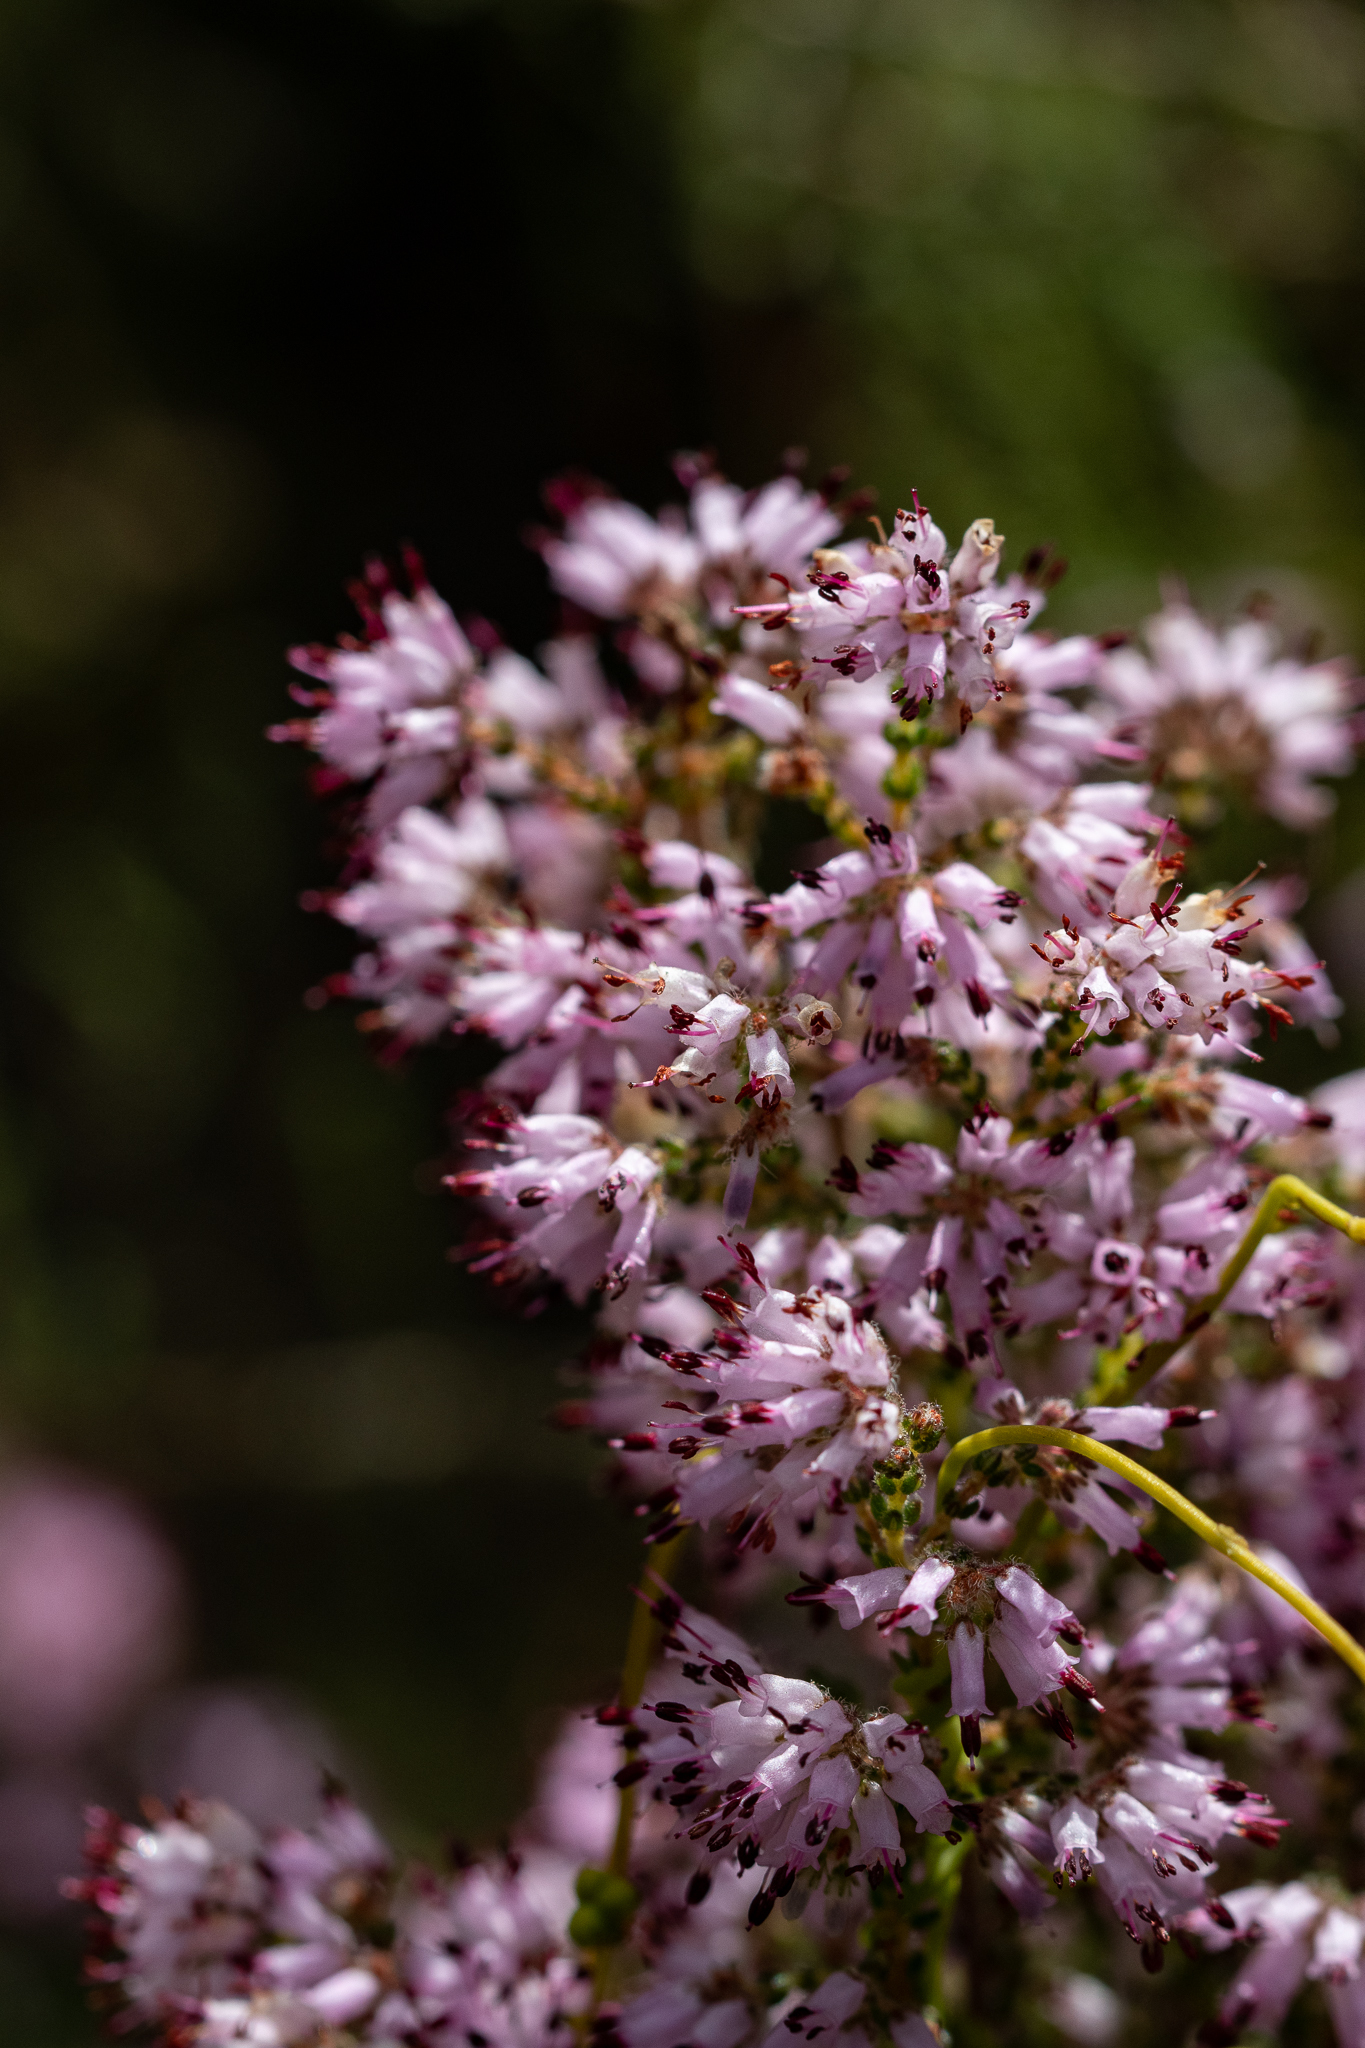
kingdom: Plantae
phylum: Tracheophyta
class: Magnoliopsida
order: Ericales
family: Ericaceae
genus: Erica
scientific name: Erica ericoides
